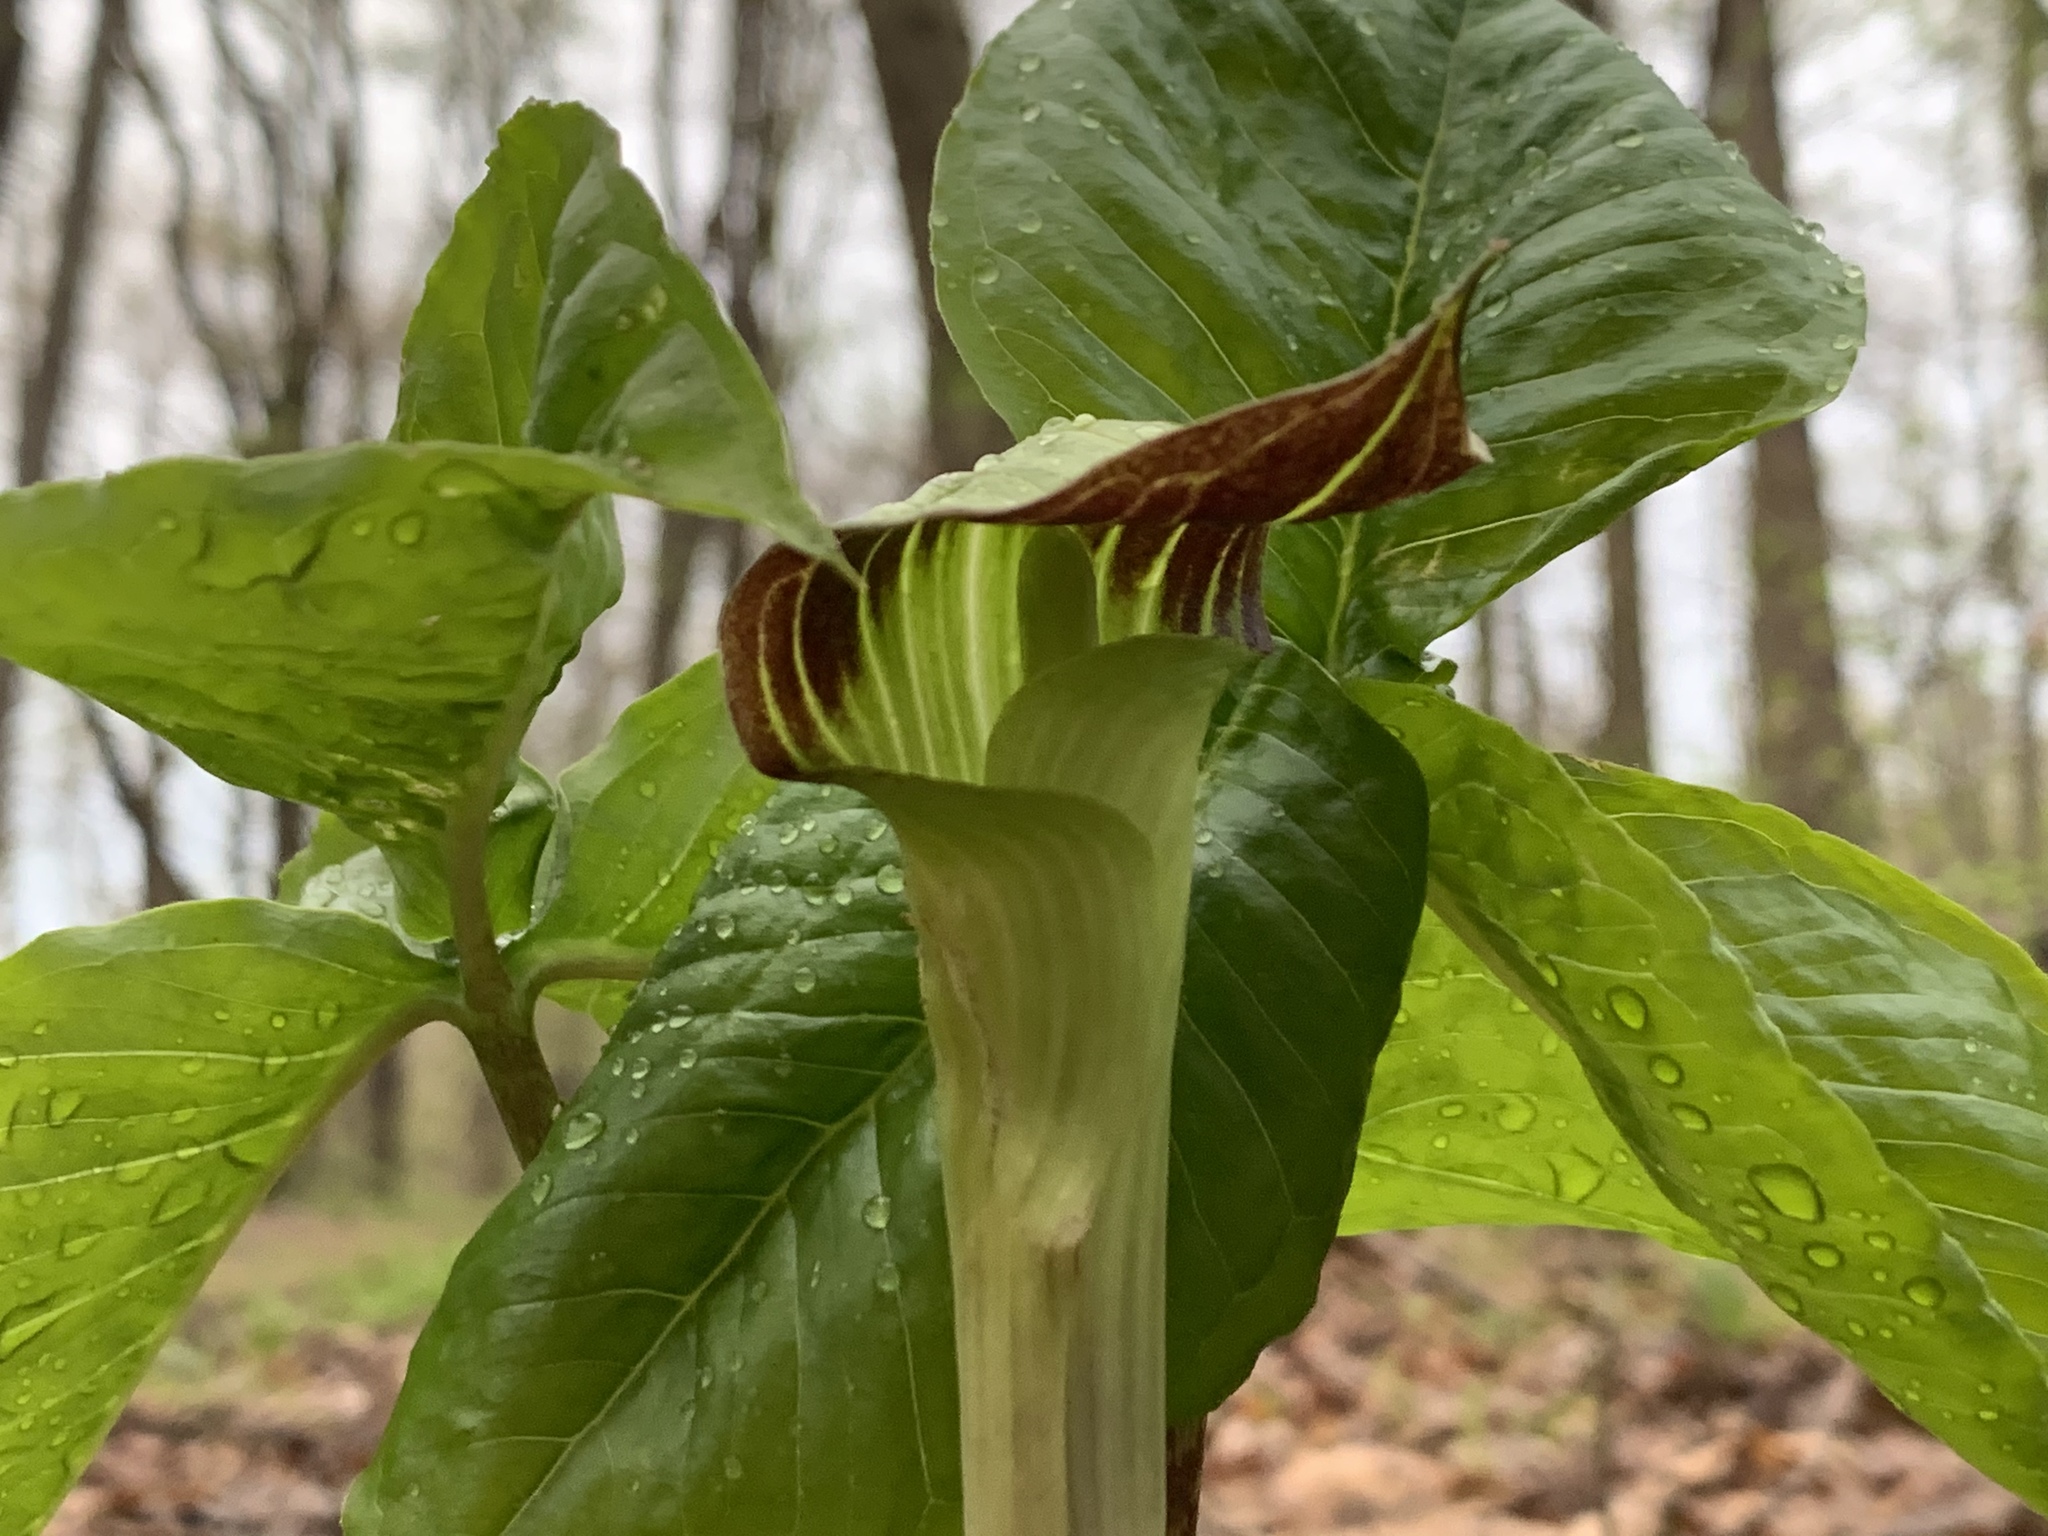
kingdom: Plantae
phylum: Tracheophyta
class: Liliopsida
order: Alismatales
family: Araceae
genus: Arisaema
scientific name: Arisaema triphyllum
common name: Jack-in-the-pulpit
